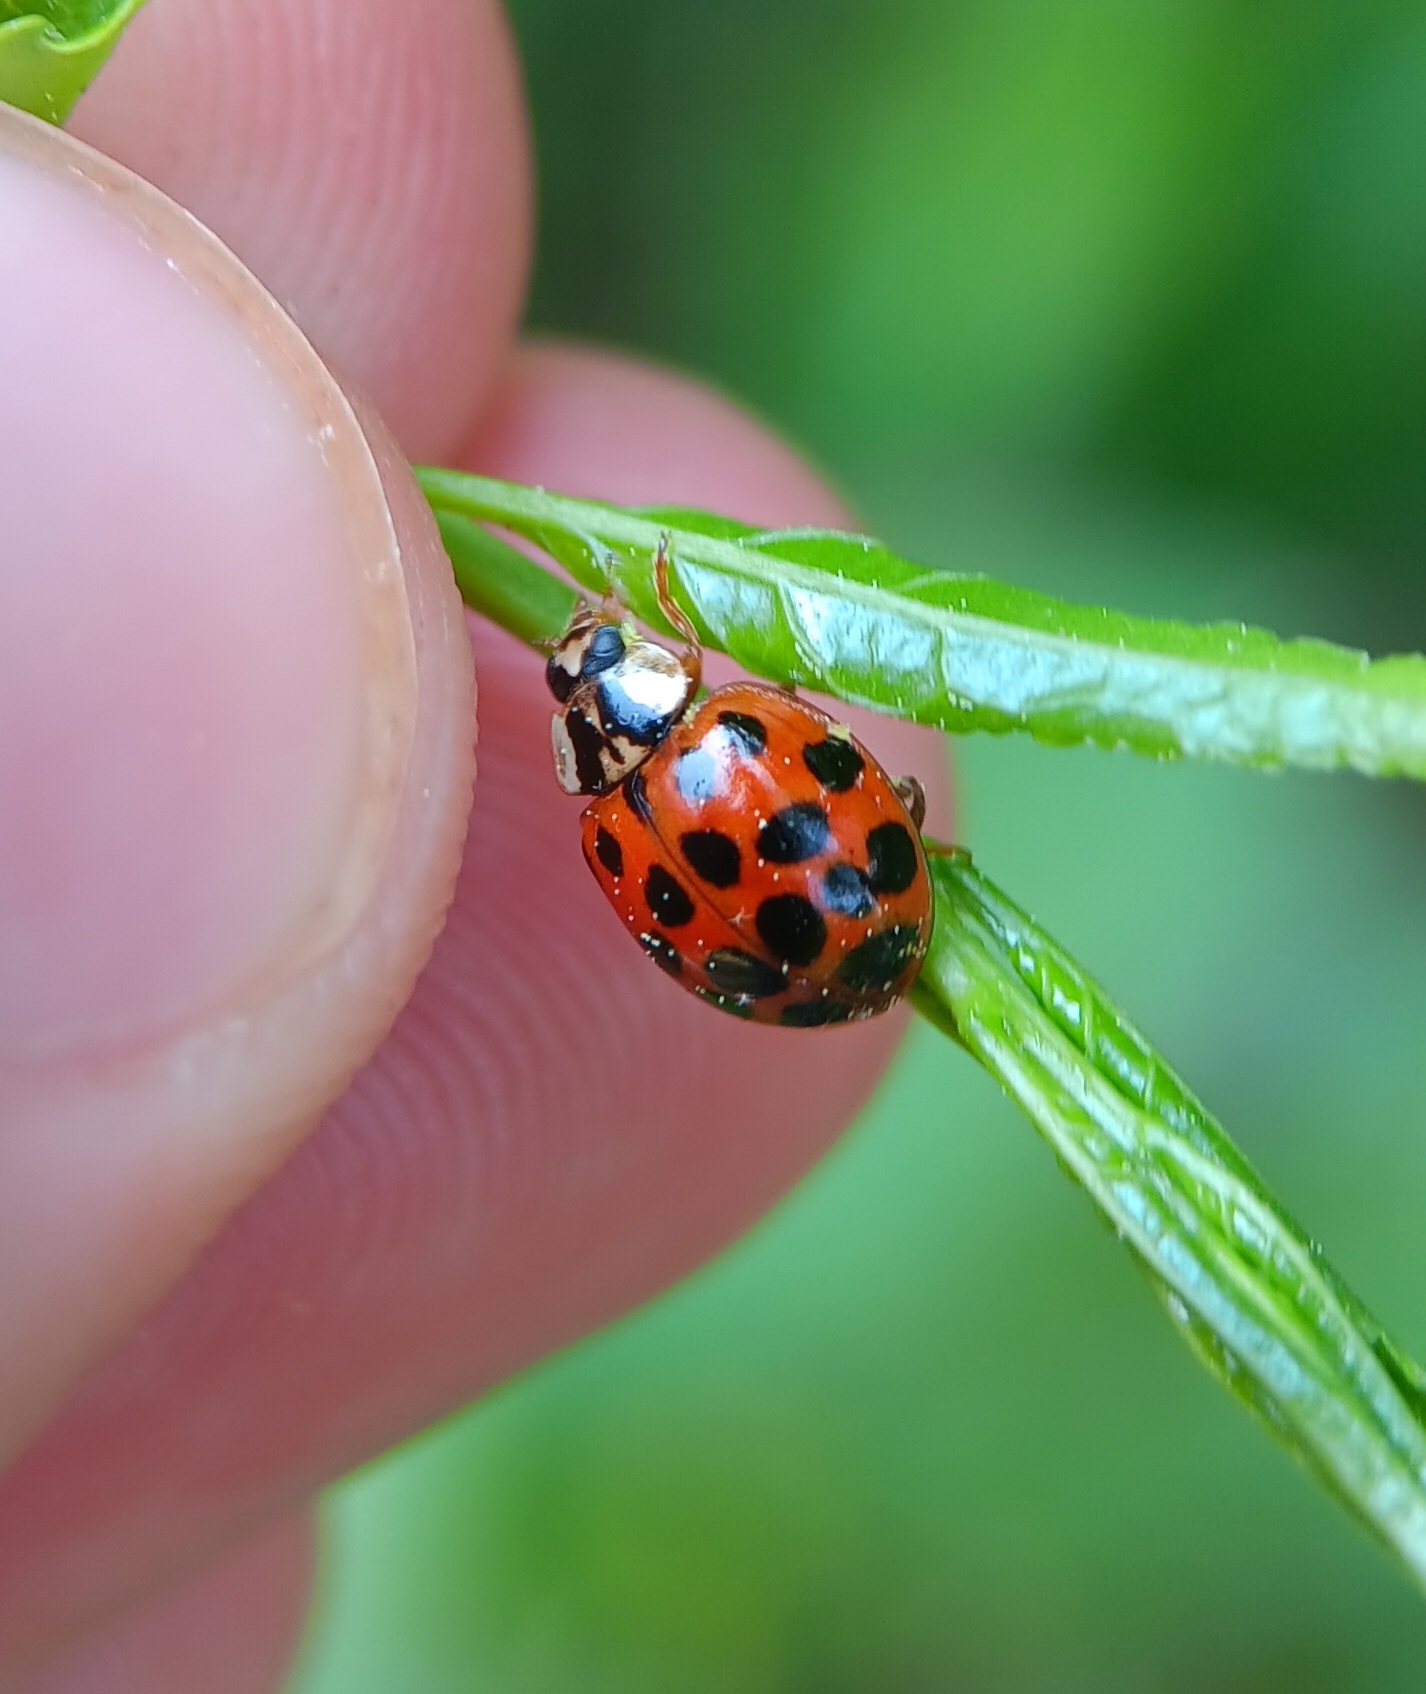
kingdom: Animalia
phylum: Arthropoda
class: Insecta
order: Coleoptera
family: Coccinellidae
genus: Harmonia
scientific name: Harmonia axyridis
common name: Harlequin ladybird
